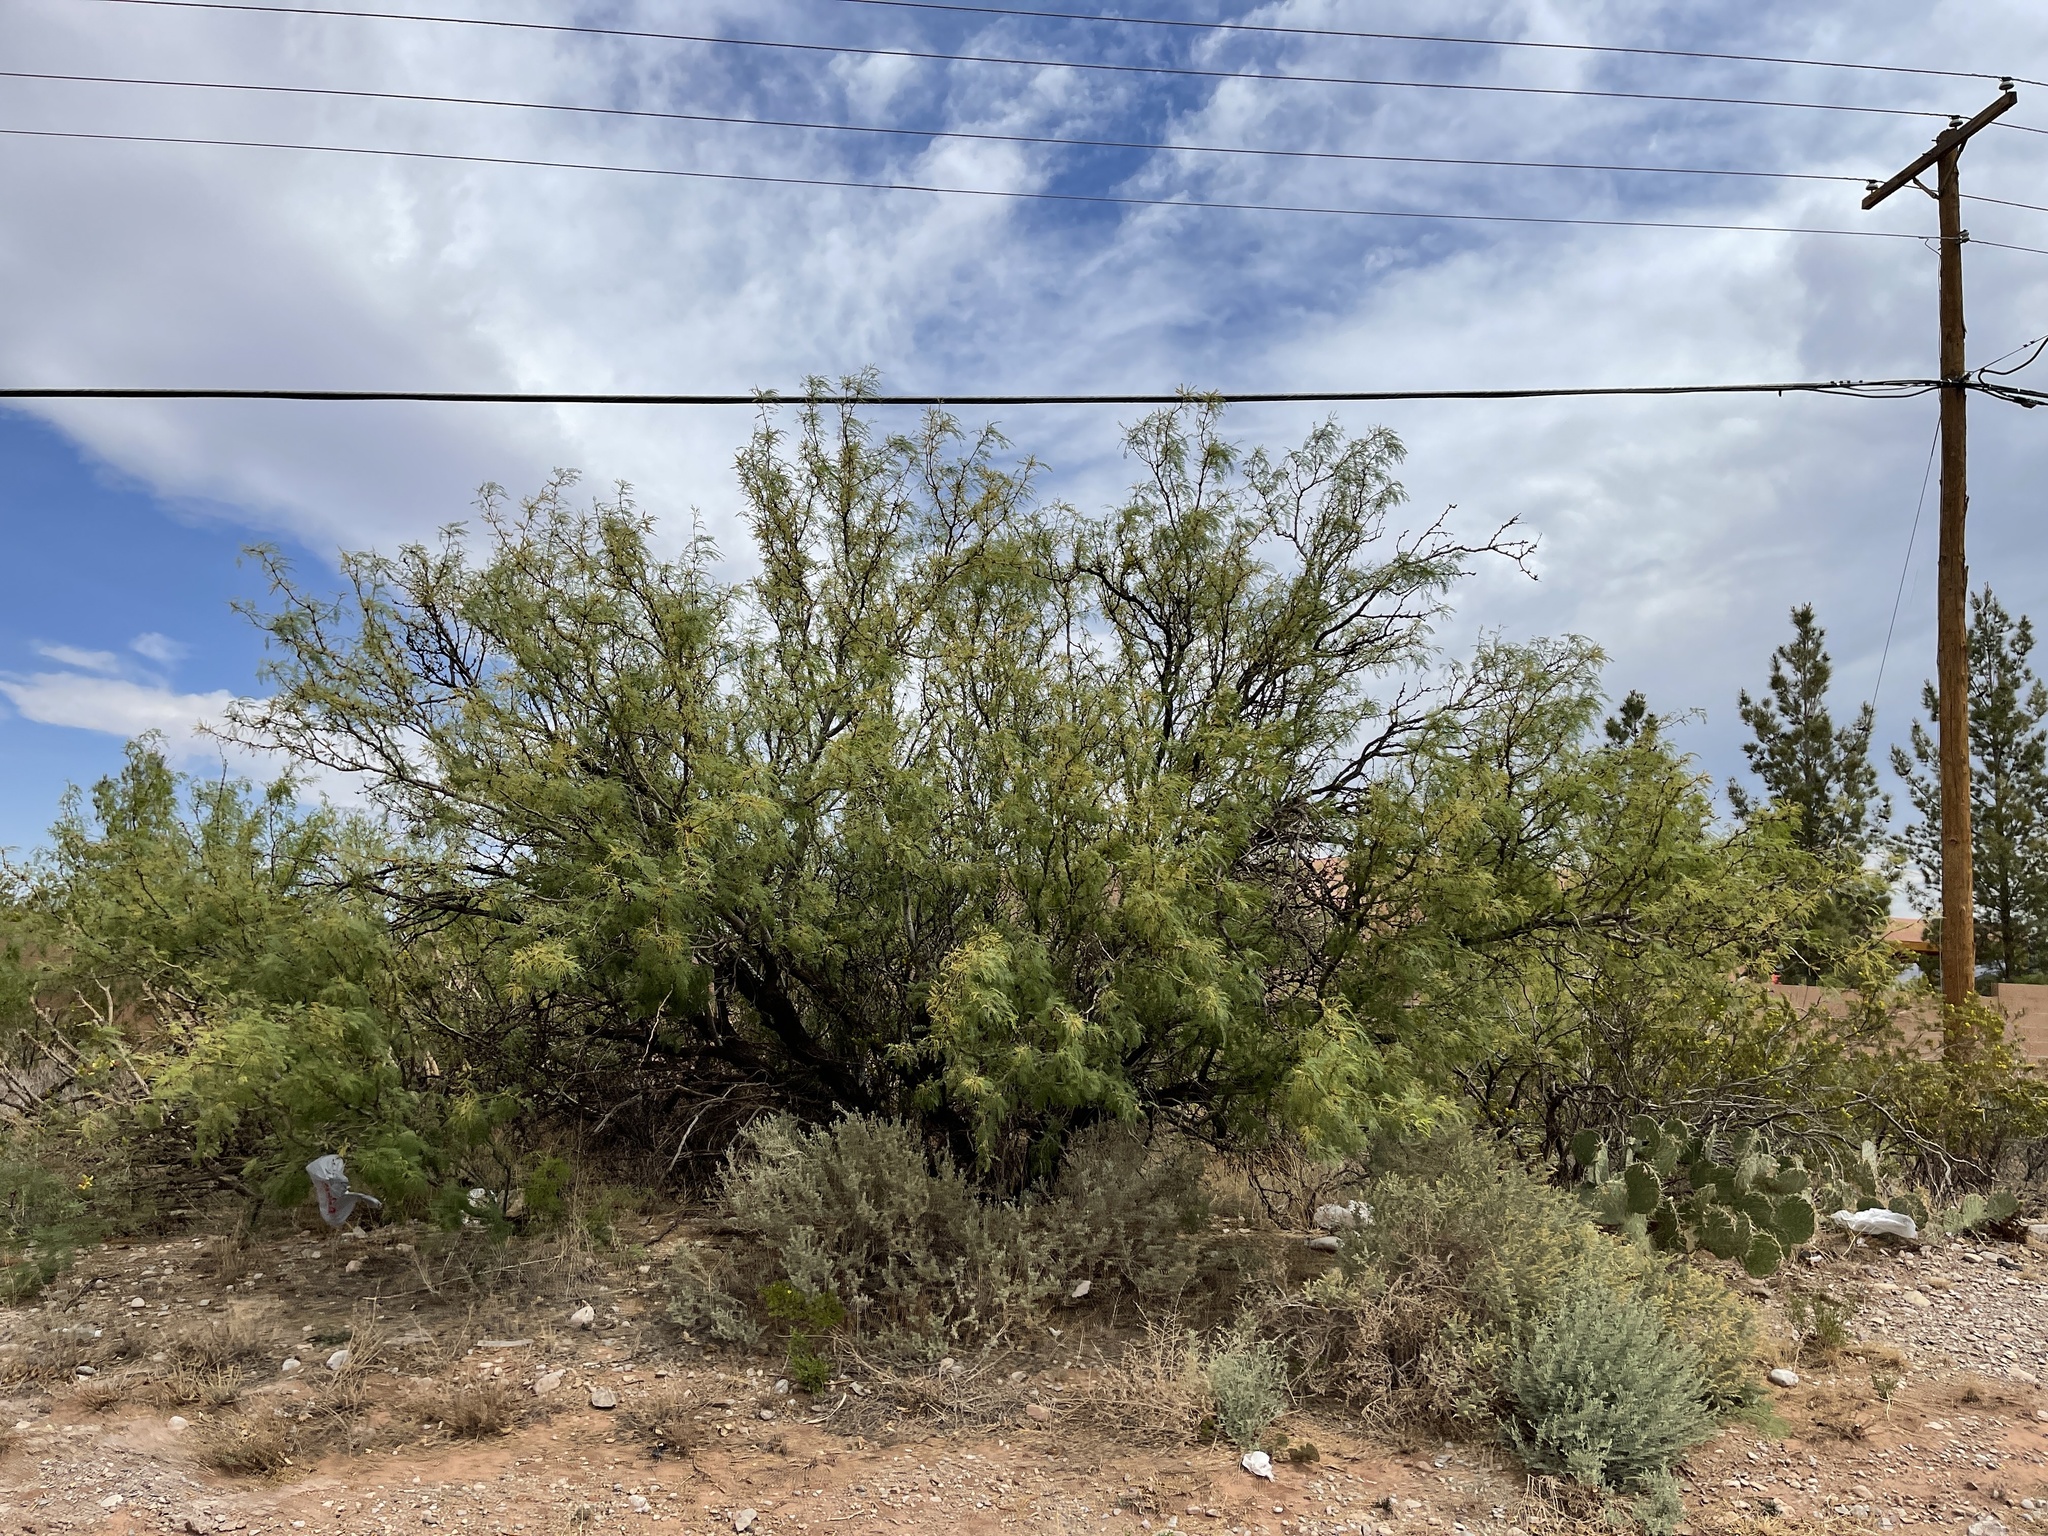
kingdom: Plantae
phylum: Tracheophyta
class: Magnoliopsida
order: Fabales
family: Fabaceae
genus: Prosopis
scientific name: Prosopis glandulosa
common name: Honey mesquite
